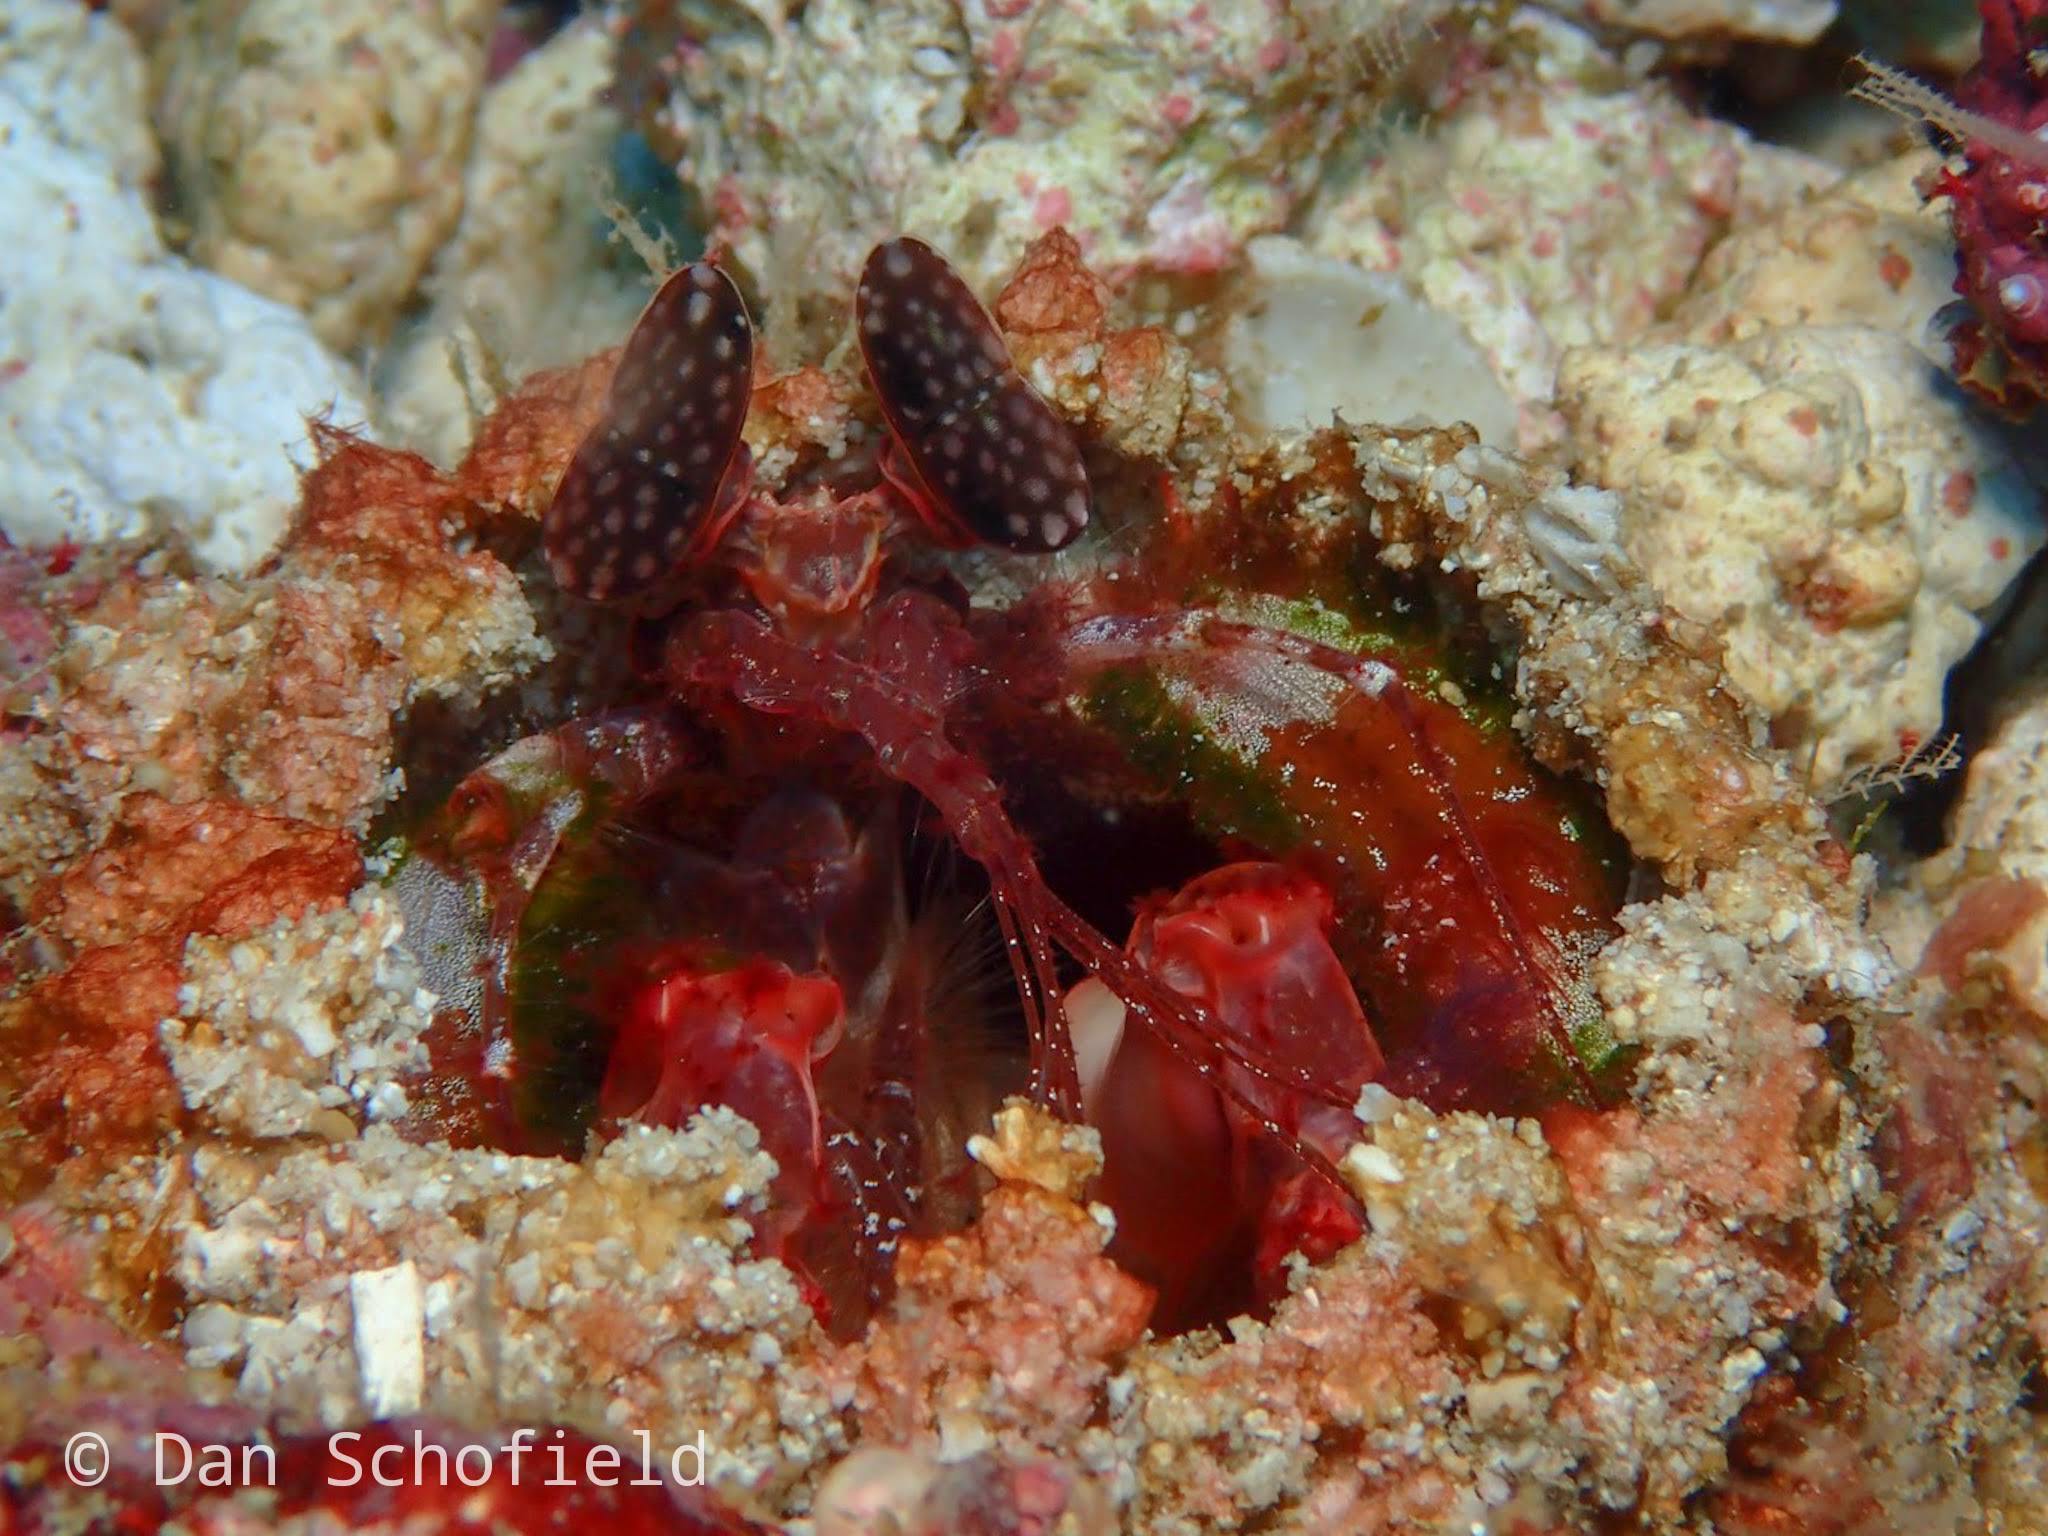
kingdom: Animalia
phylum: Arthropoda
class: Malacostraca
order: Stomatopoda
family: Lysiosquillidae
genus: Lysiosquilla
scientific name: Lysiosquilla lisa
